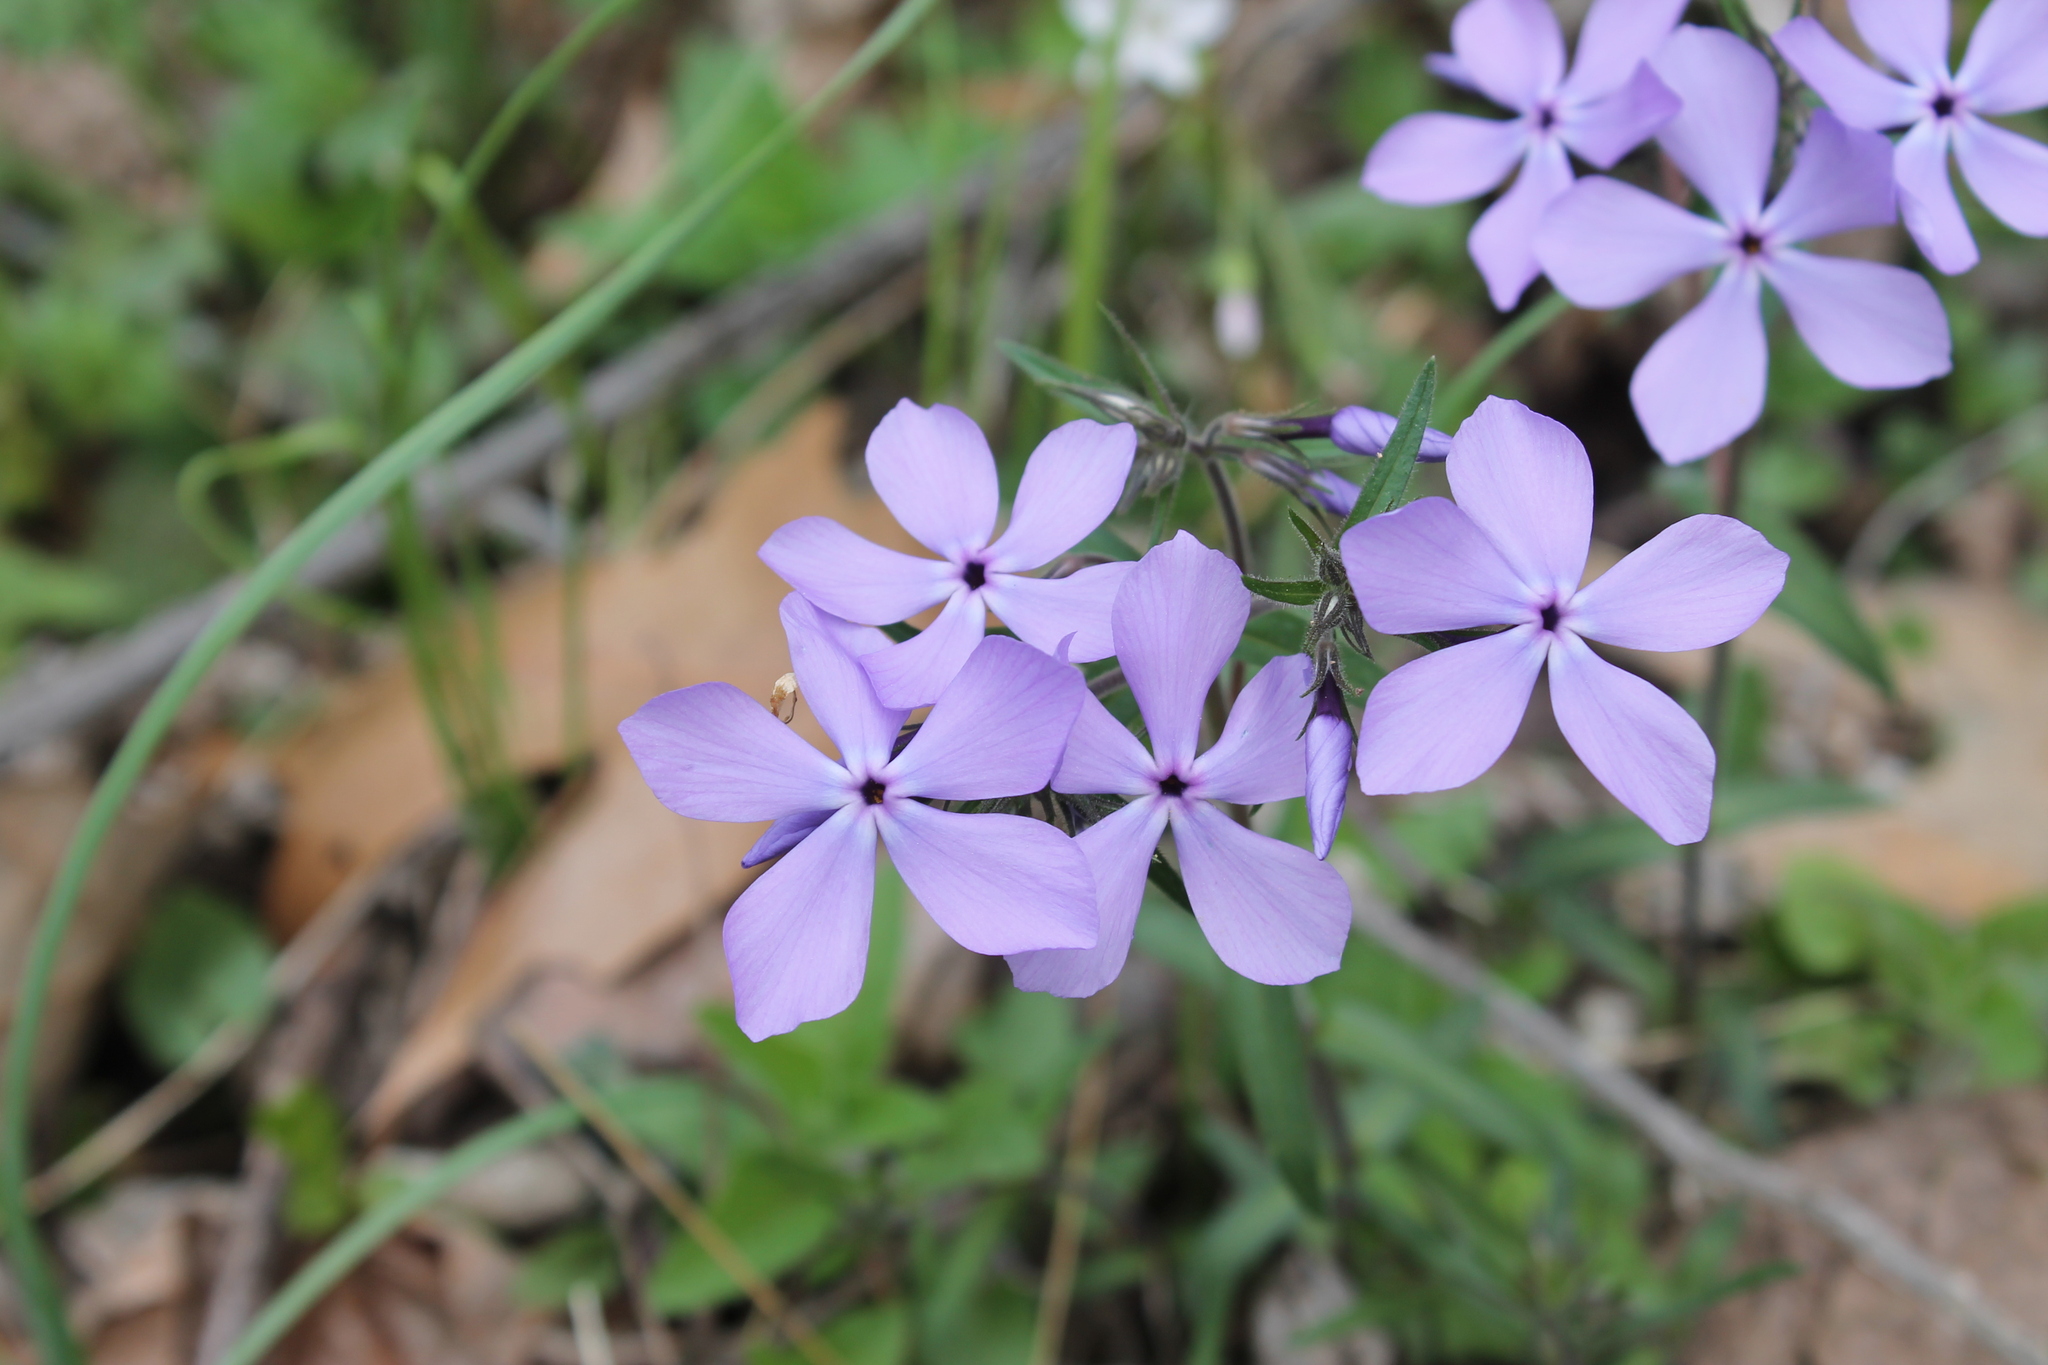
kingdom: Plantae
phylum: Tracheophyta
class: Magnoliopsida
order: Ericales
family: Polemoniaceae
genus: Phlox
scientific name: Phlox divaricata
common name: Blue phlox
